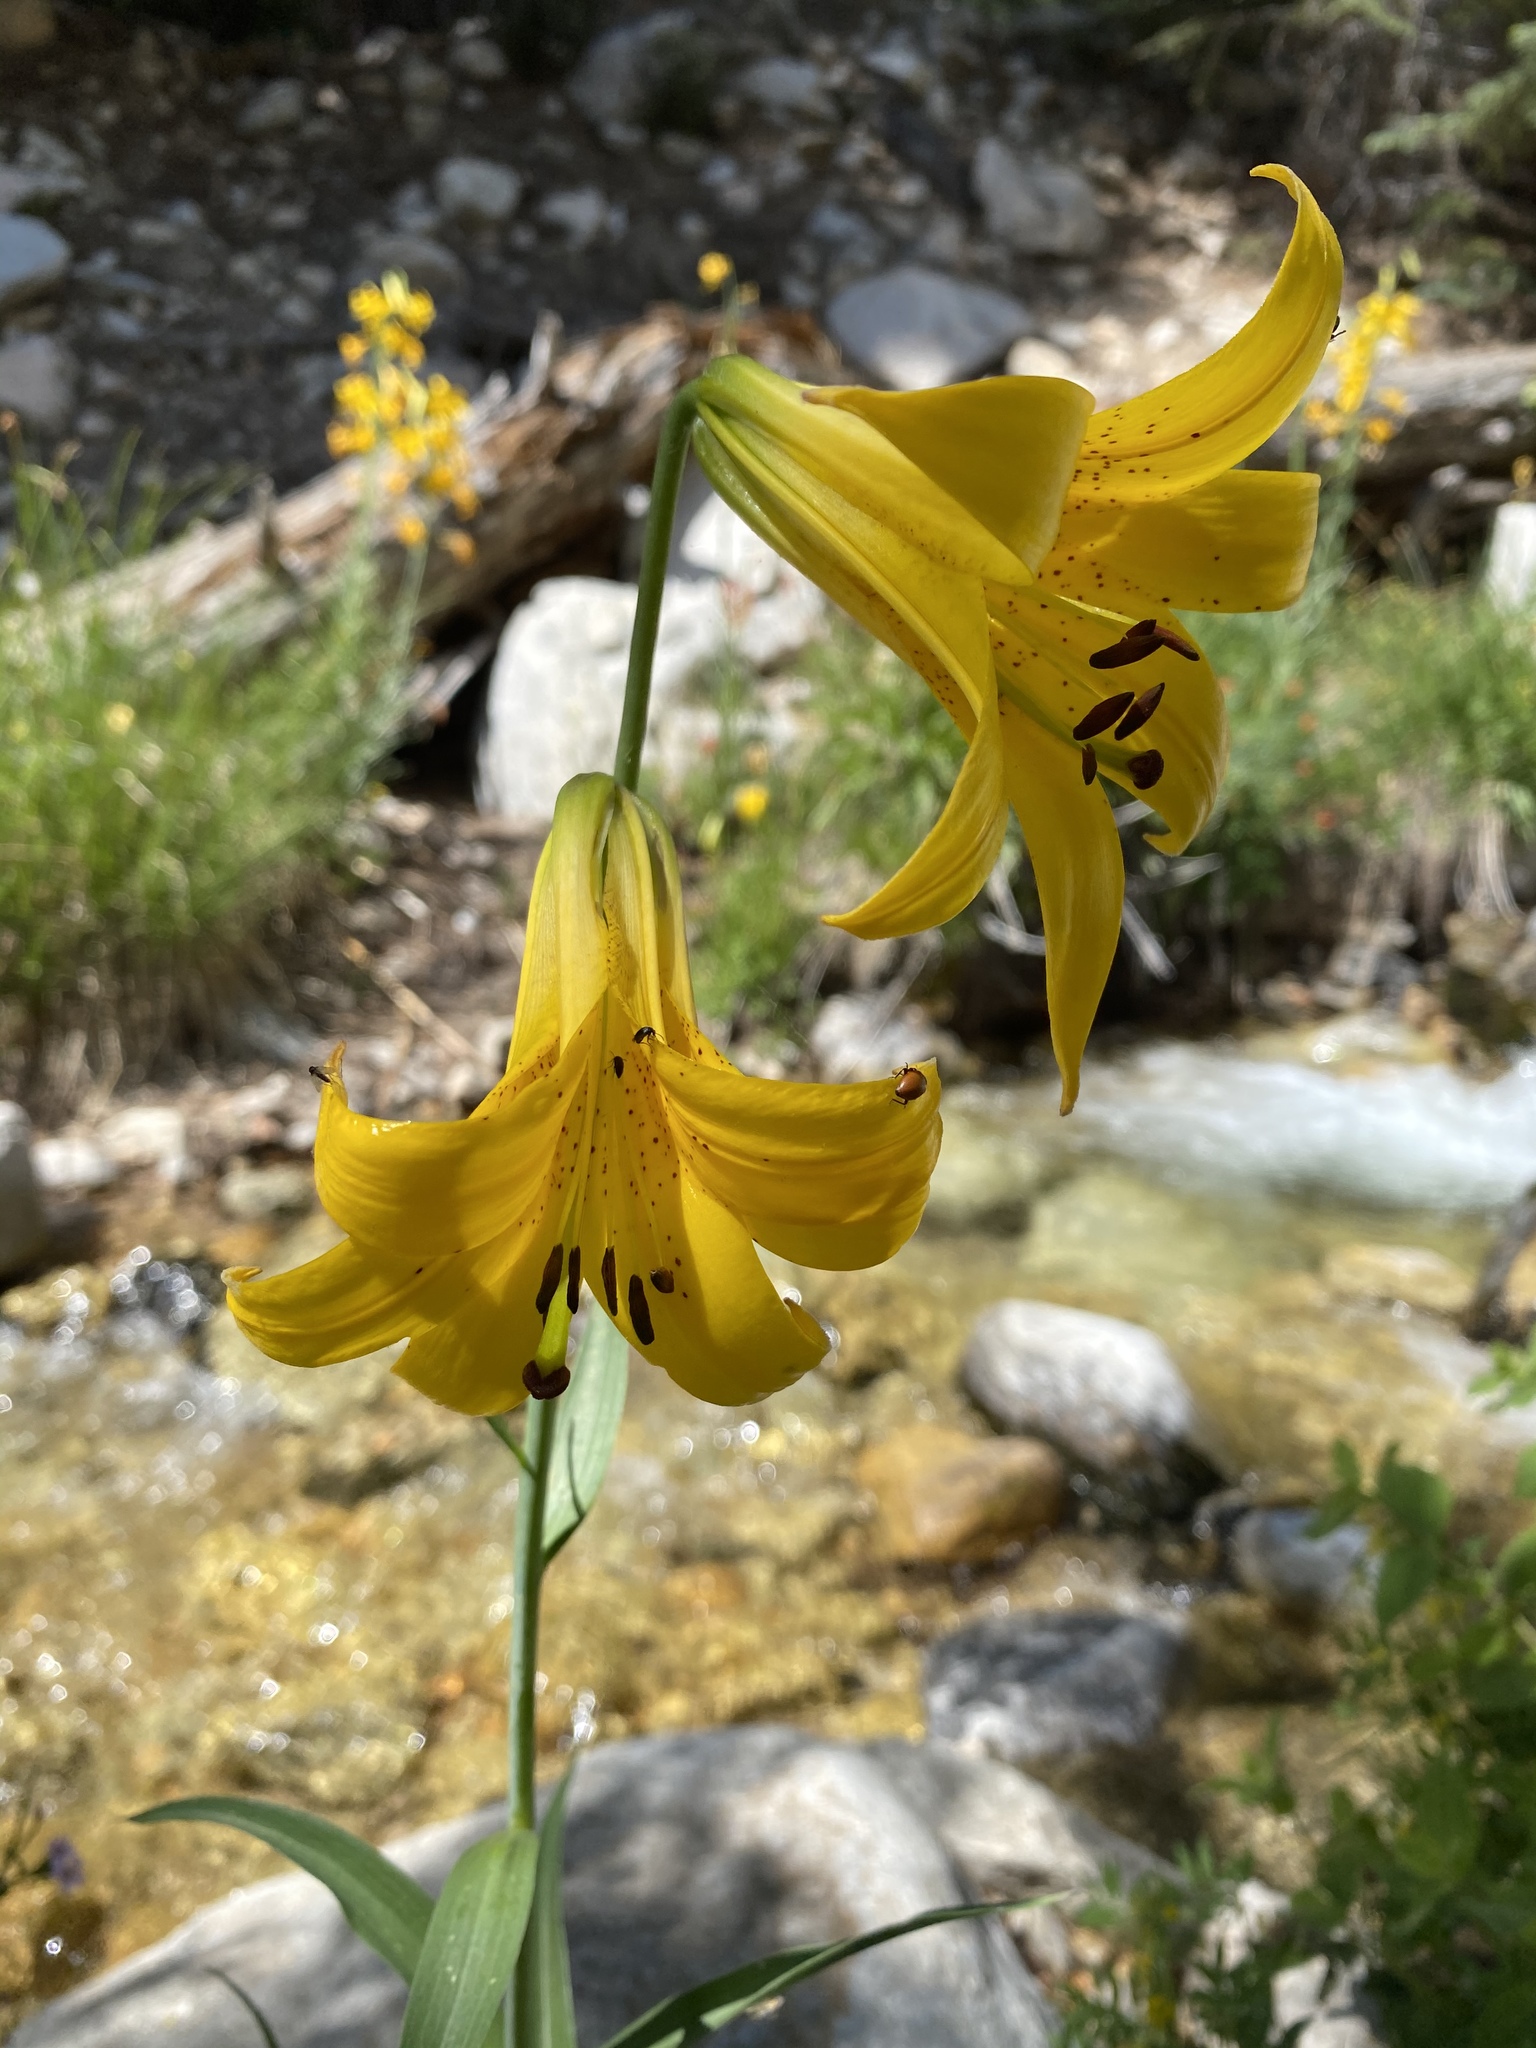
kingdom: Plantae
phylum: Tracheophyta
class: Liliopsida
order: Liliales
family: Liliaceae
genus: Lilium
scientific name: Lilium parryi
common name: Lemon lily
